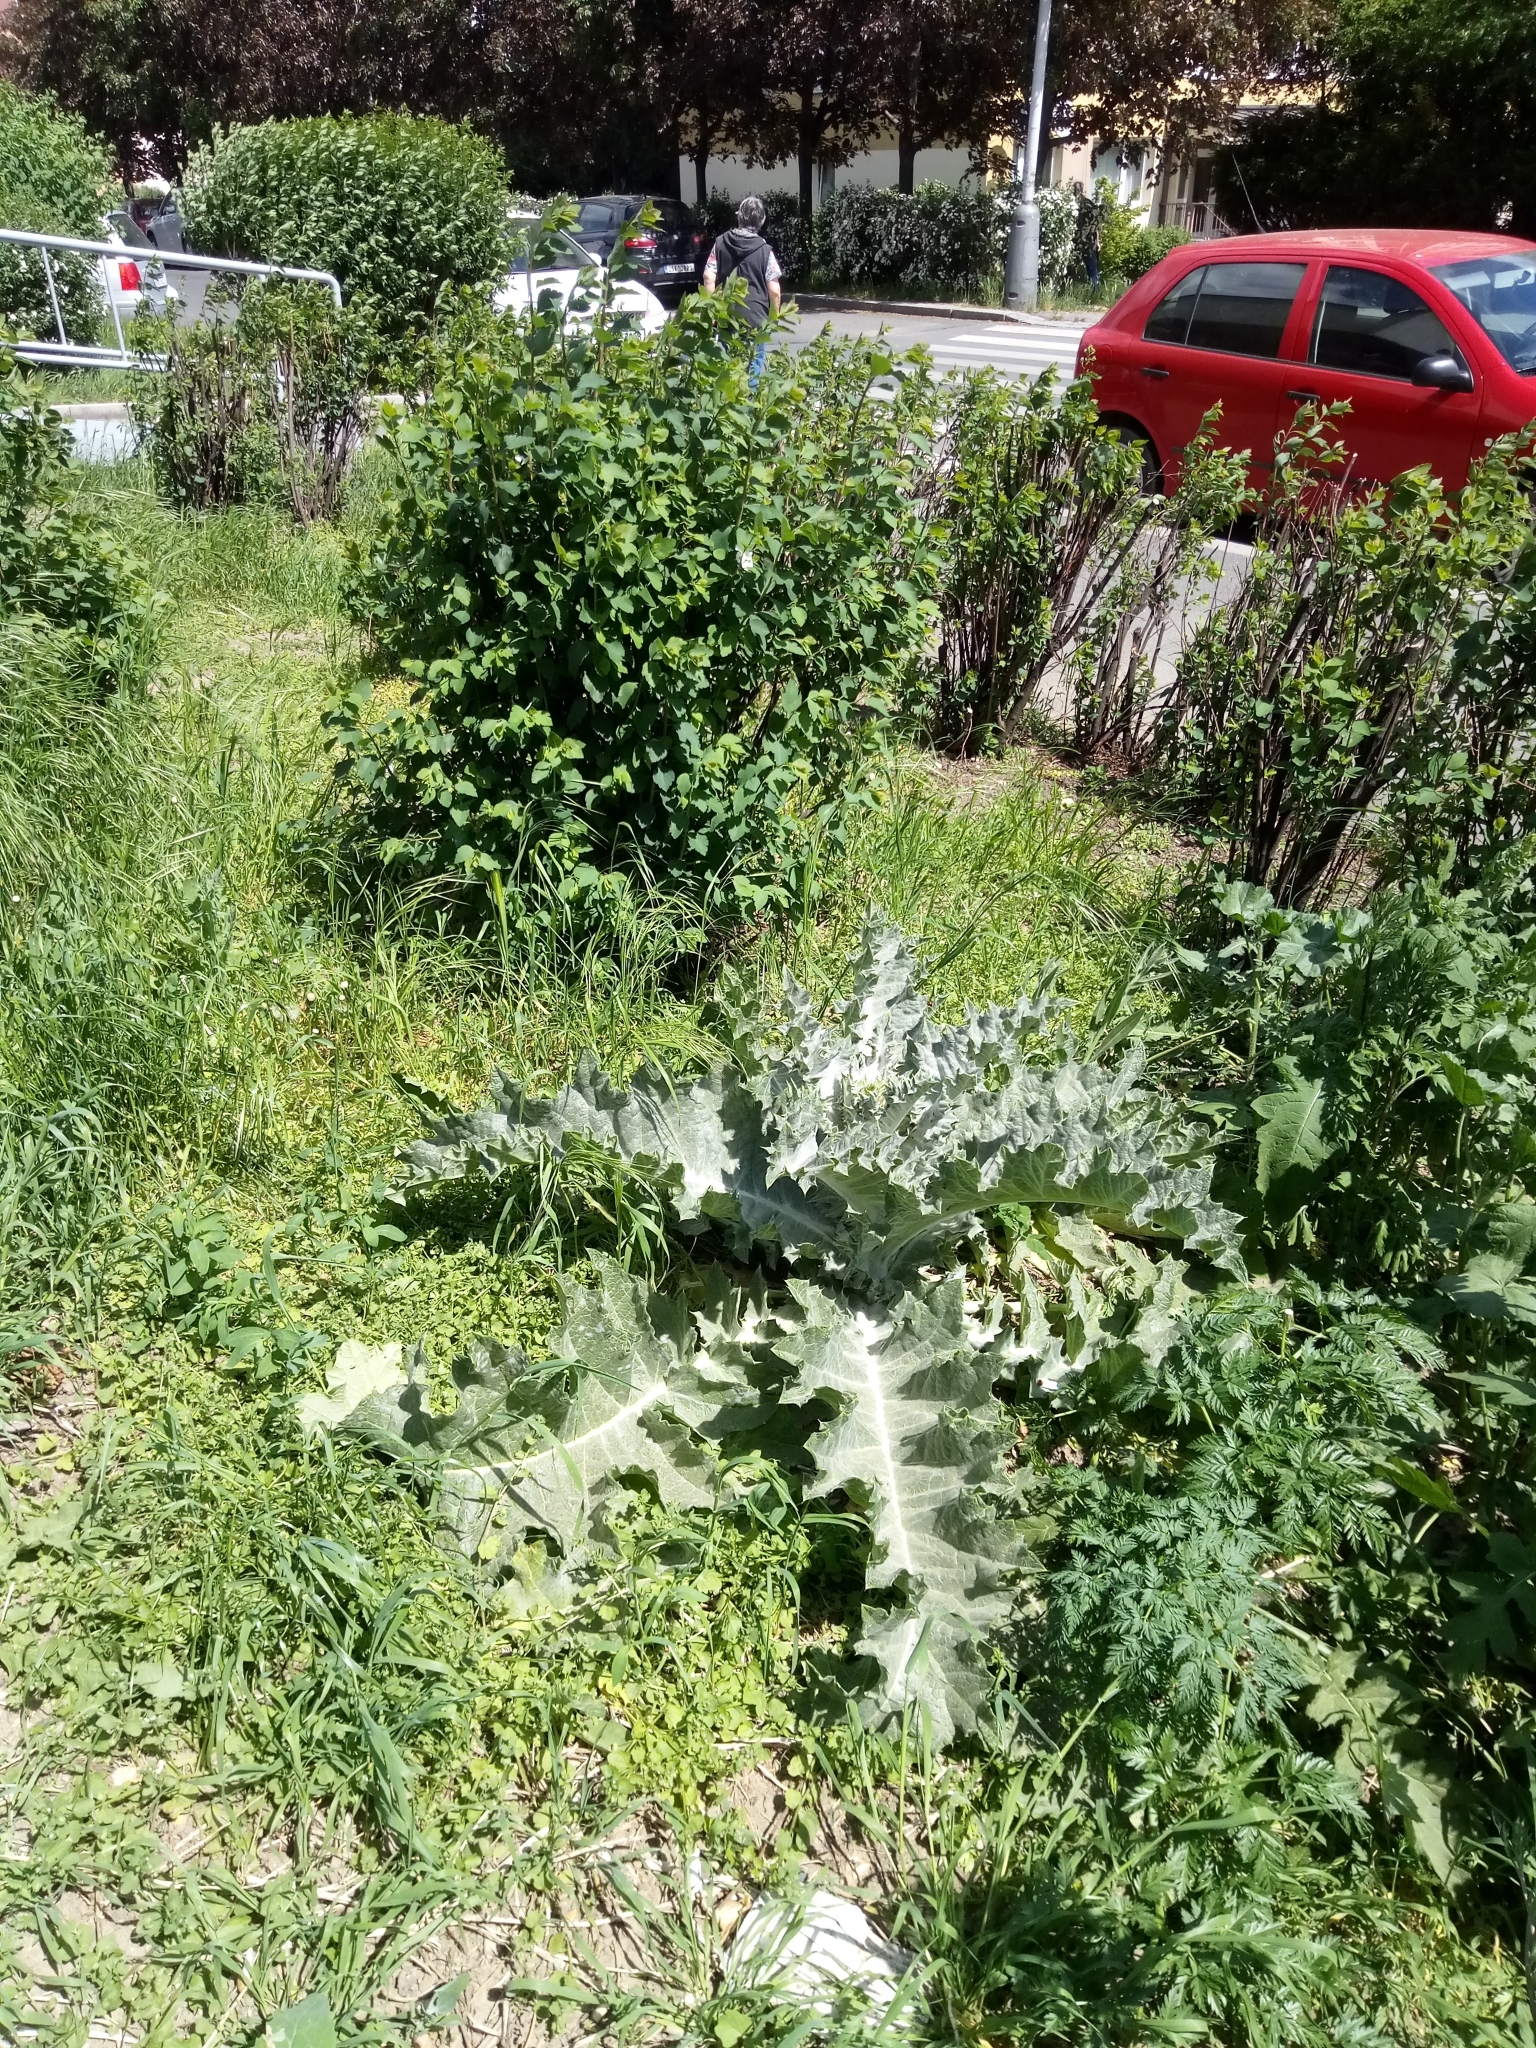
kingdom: Plantae
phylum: Tracheophyta
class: Magnoliopsida
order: Asterales
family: Asteraceae
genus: Onopordum
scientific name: Onopordum acanthium
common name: Scotch thistle
